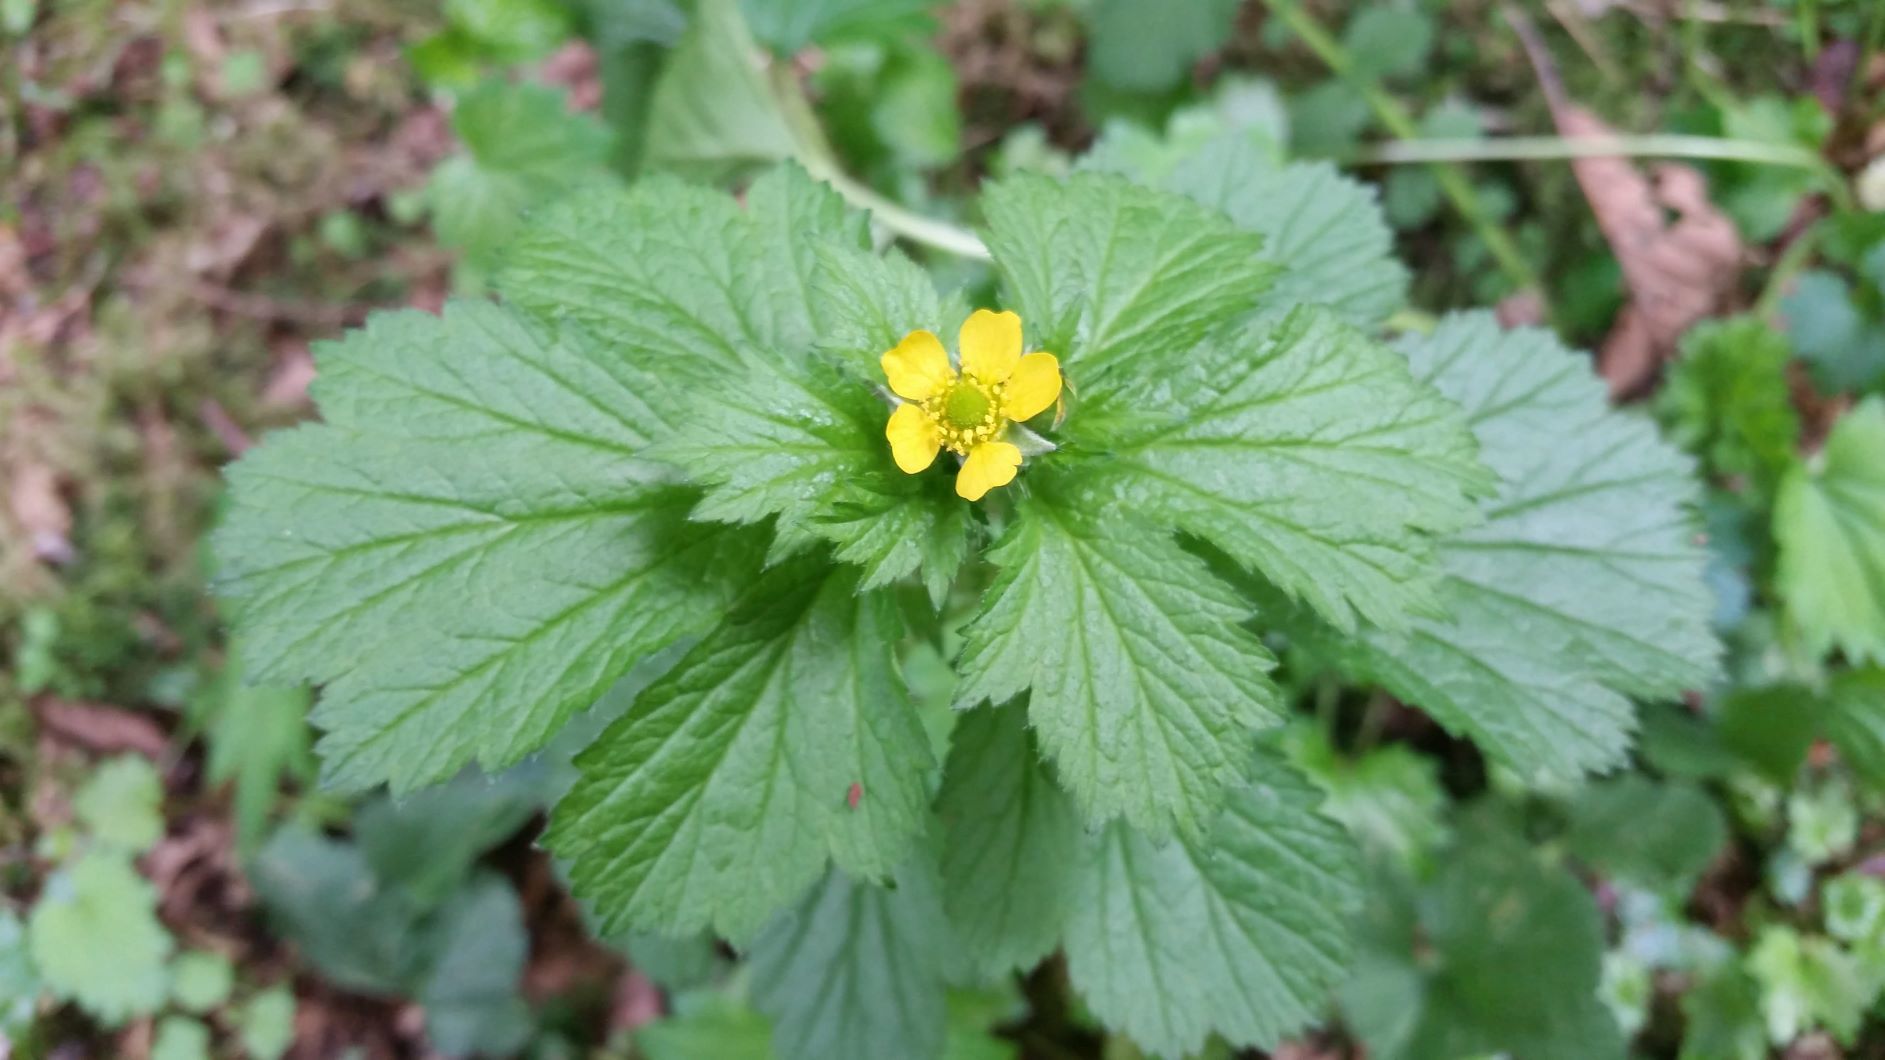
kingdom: Plantae
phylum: Tracheophyta
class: Magnoliopsida
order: Rosales
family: Rosaceae
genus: Geum
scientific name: Geum macrophyllum
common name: Large-leaved avens
